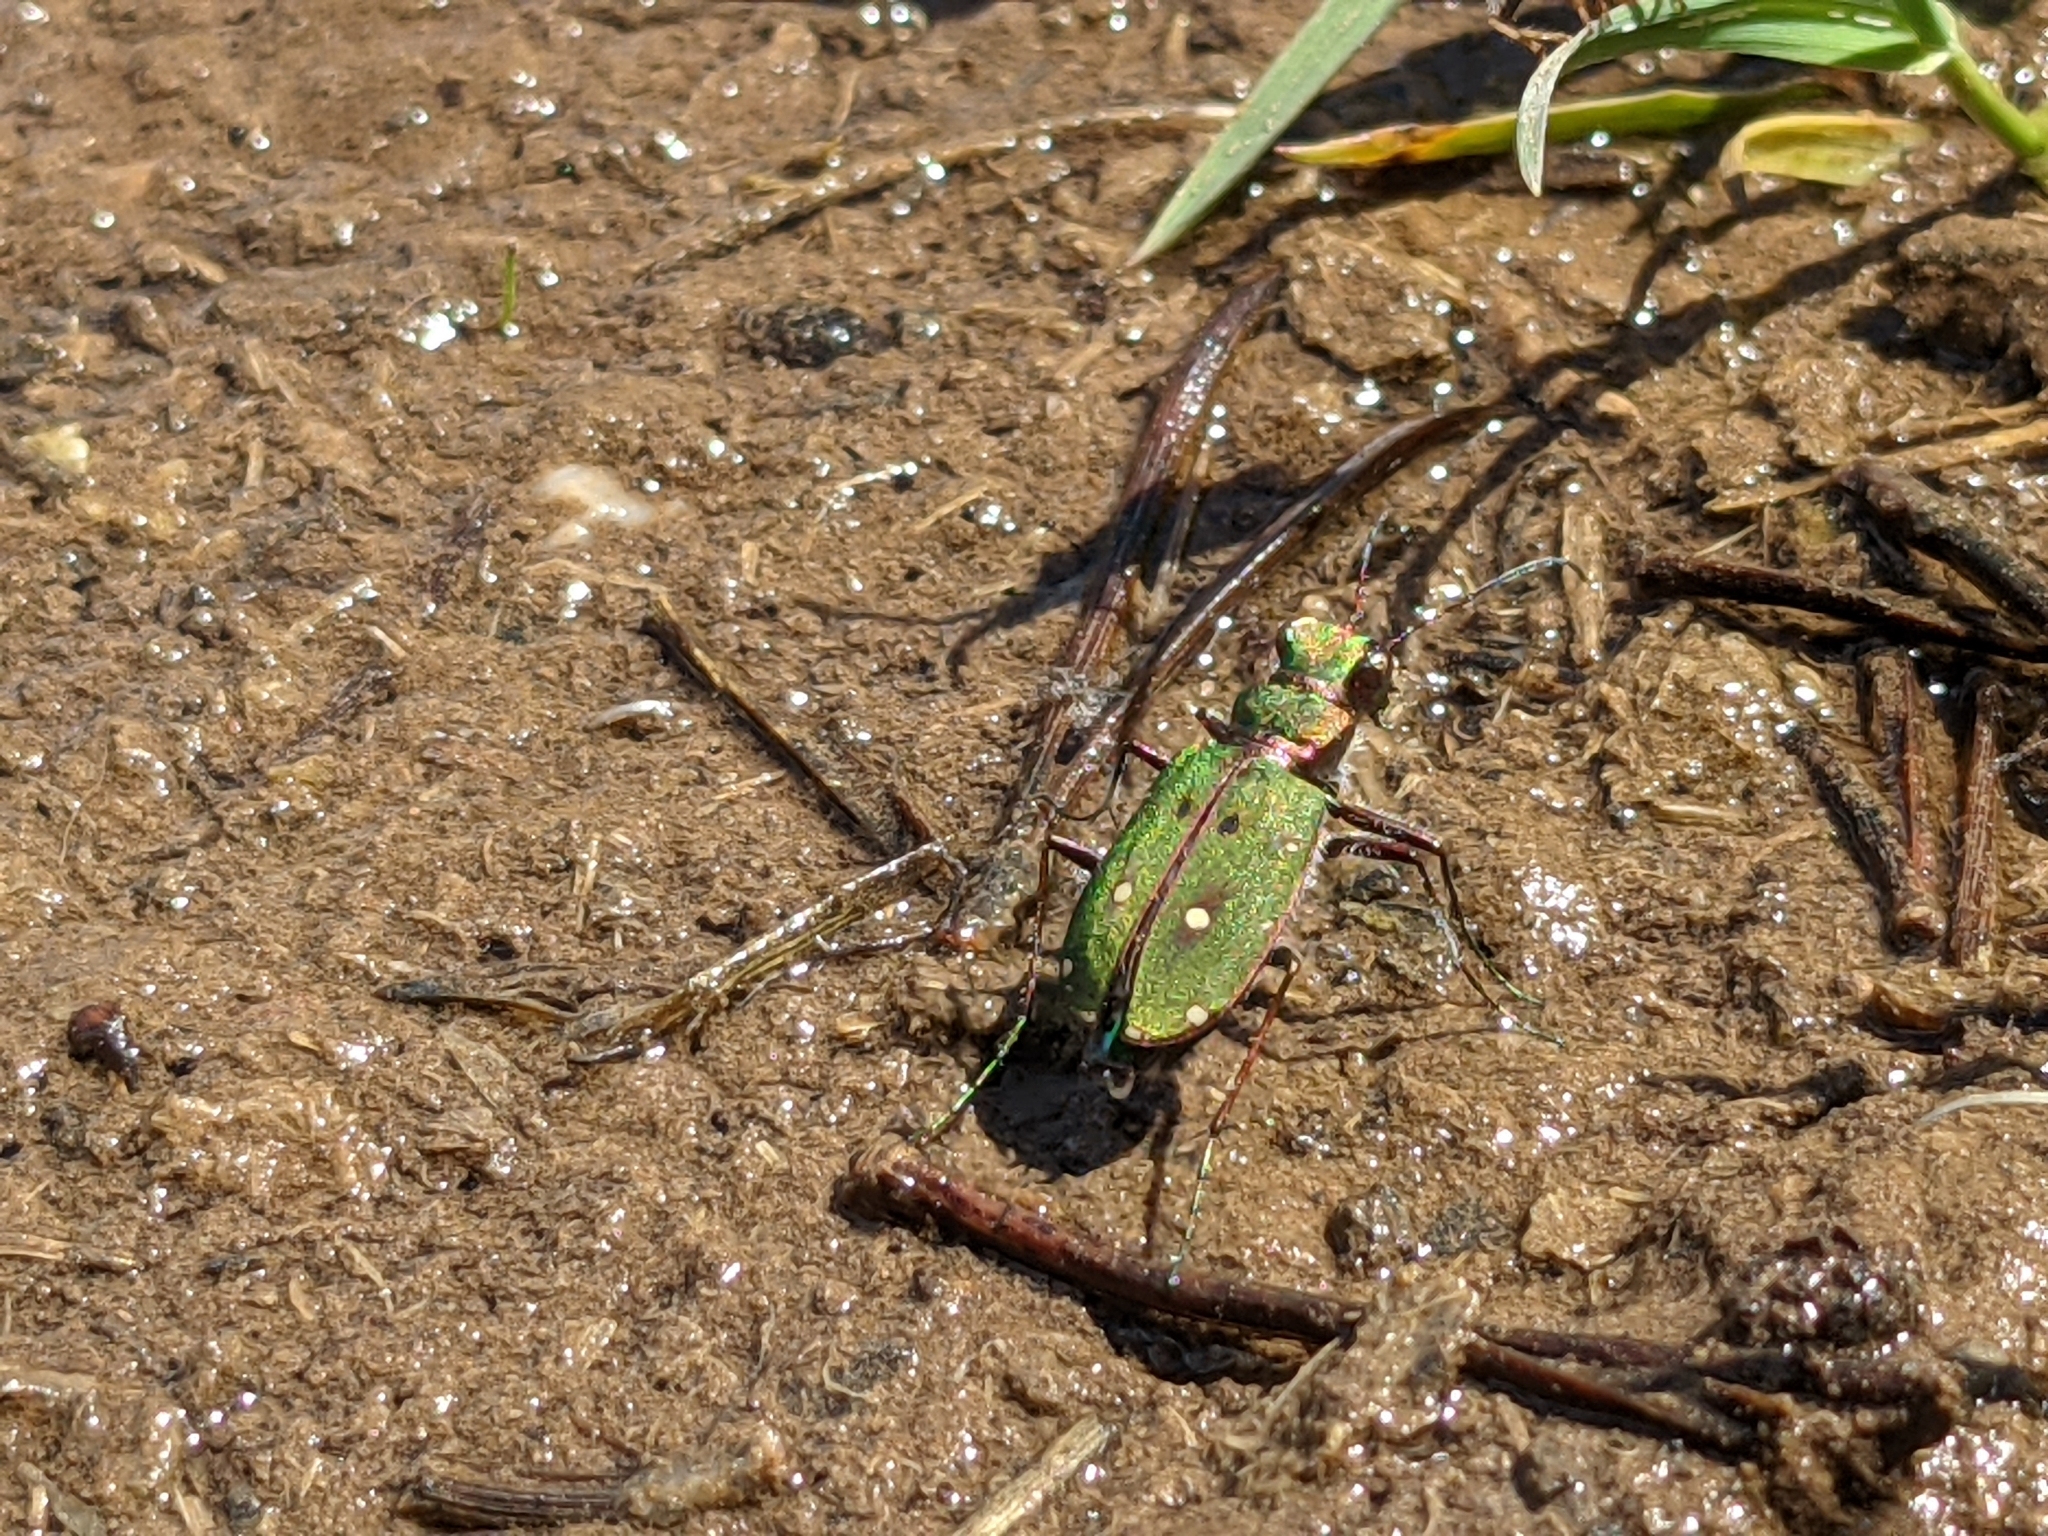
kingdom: Animalia
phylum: Arthropoda
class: Insecta
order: Coleoptera
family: Carabidae
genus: Cicindela
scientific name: Cicindela campestris
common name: Common tiger beetle
